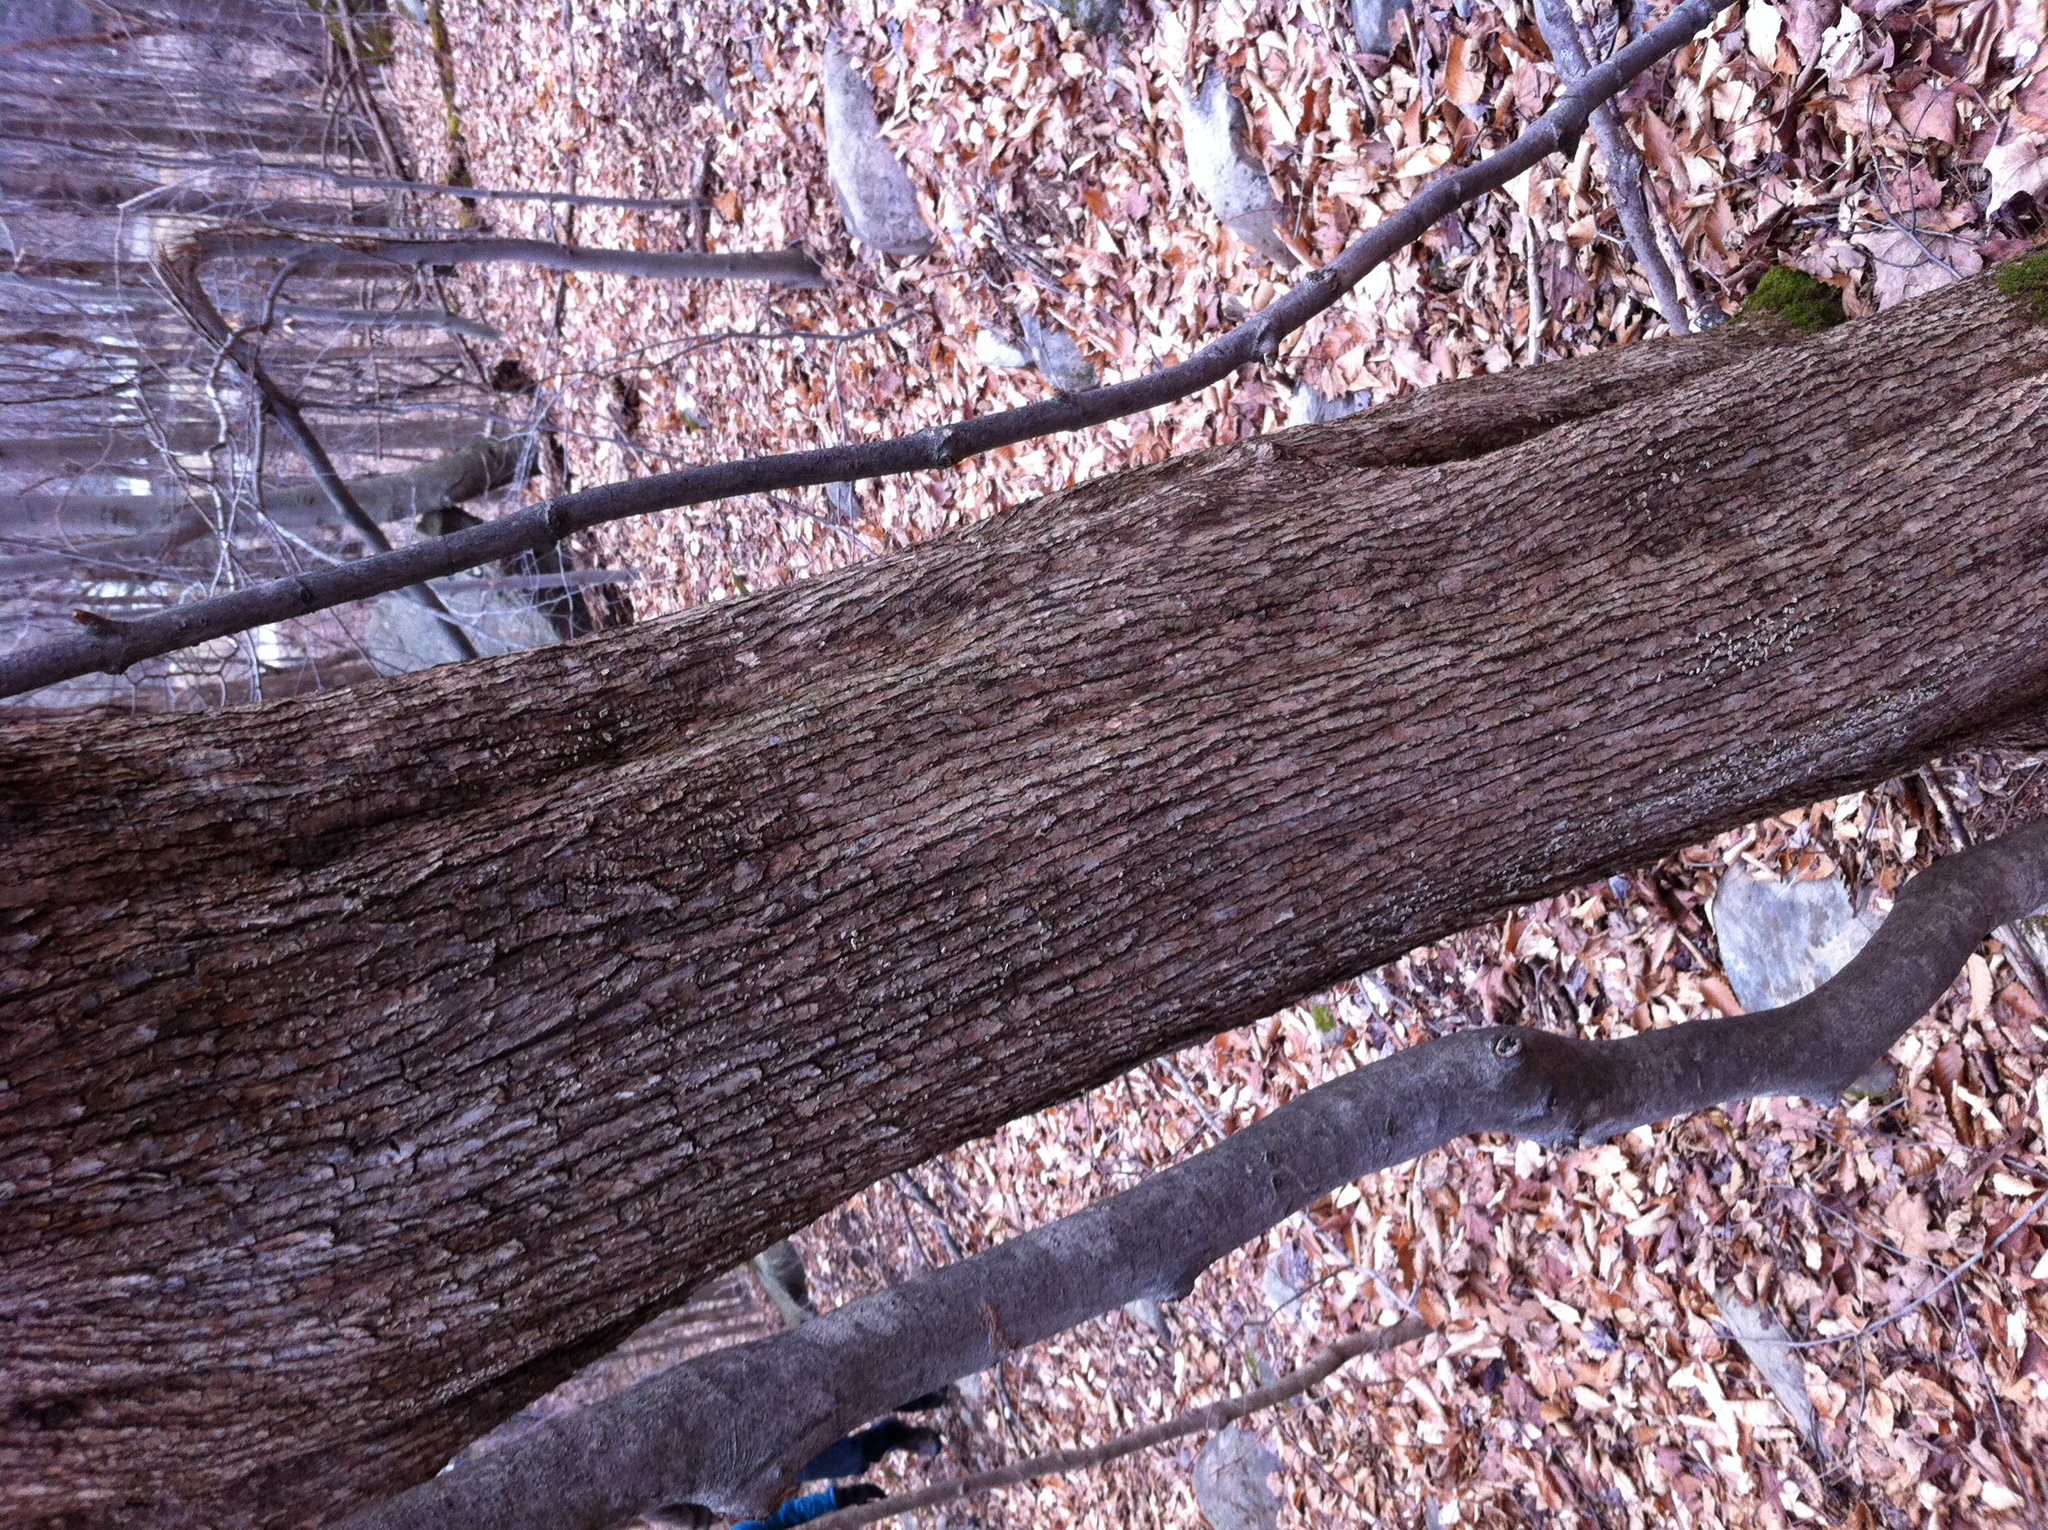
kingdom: Plantae
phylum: Tracheophyta
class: Magnoliopsida
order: Fagales
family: Betulaceae
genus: Ostrya
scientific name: Ostrya virginiana
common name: Ironwood
